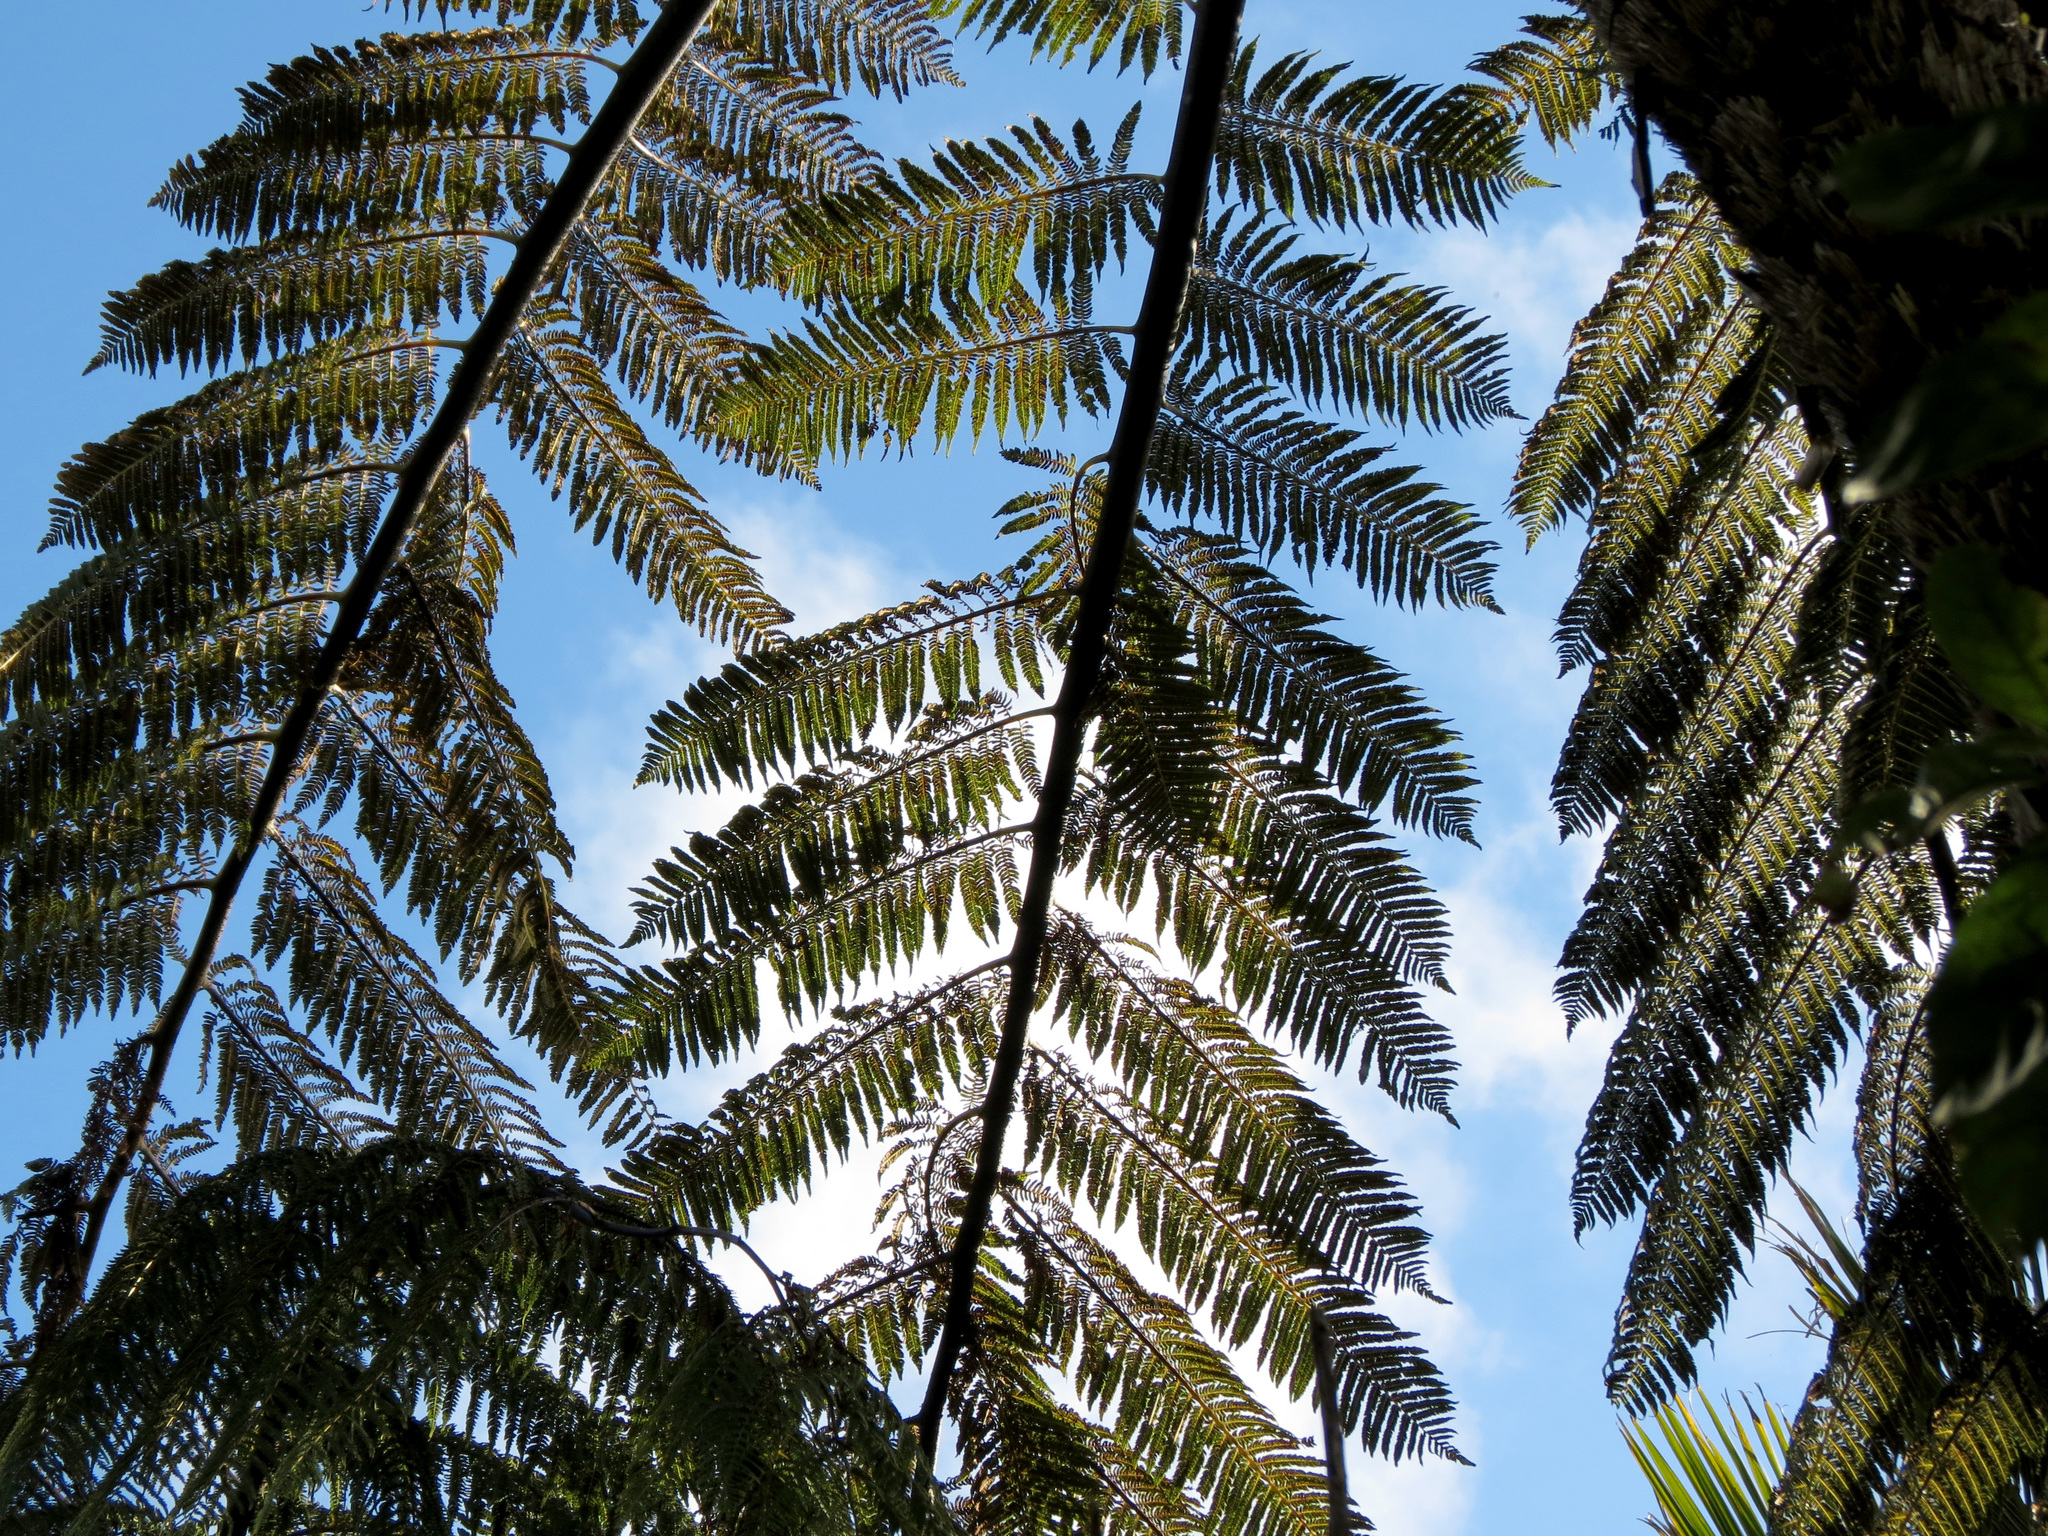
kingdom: Plantae
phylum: Tracheophyta
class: Polypodiopsida
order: Cyatheales
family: Cyatheaceae
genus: Sphaeropteris
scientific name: Sphaeropteris medullaris
